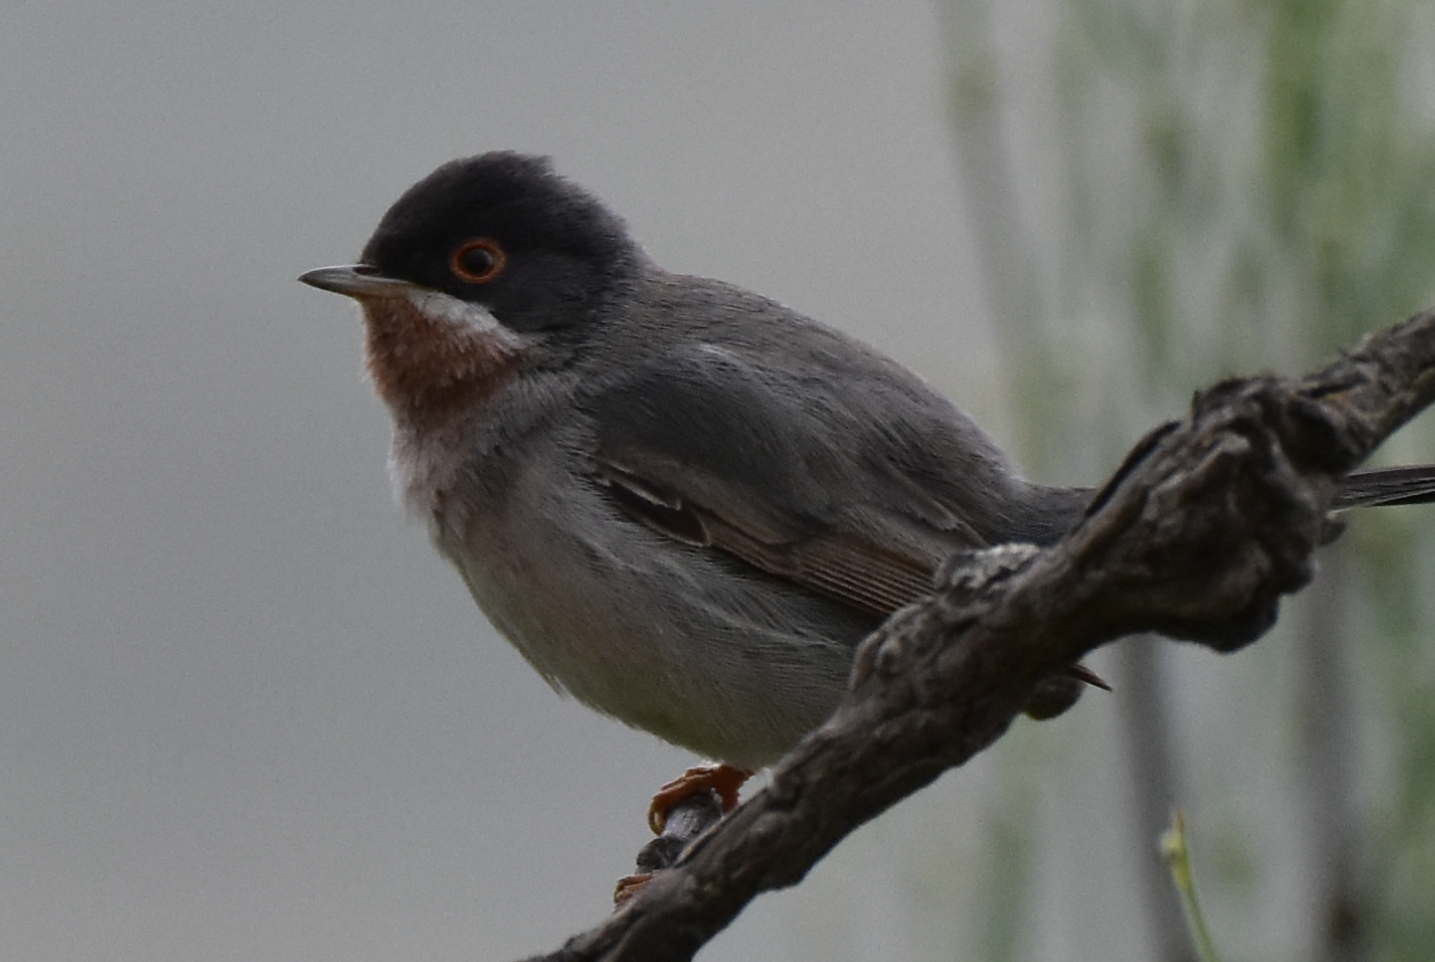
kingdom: Animalia
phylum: Chordata
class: Aves
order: Passeriformes
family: Sylviidae
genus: Sylvia
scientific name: Sylvia mystacea
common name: Menetries's warbler
